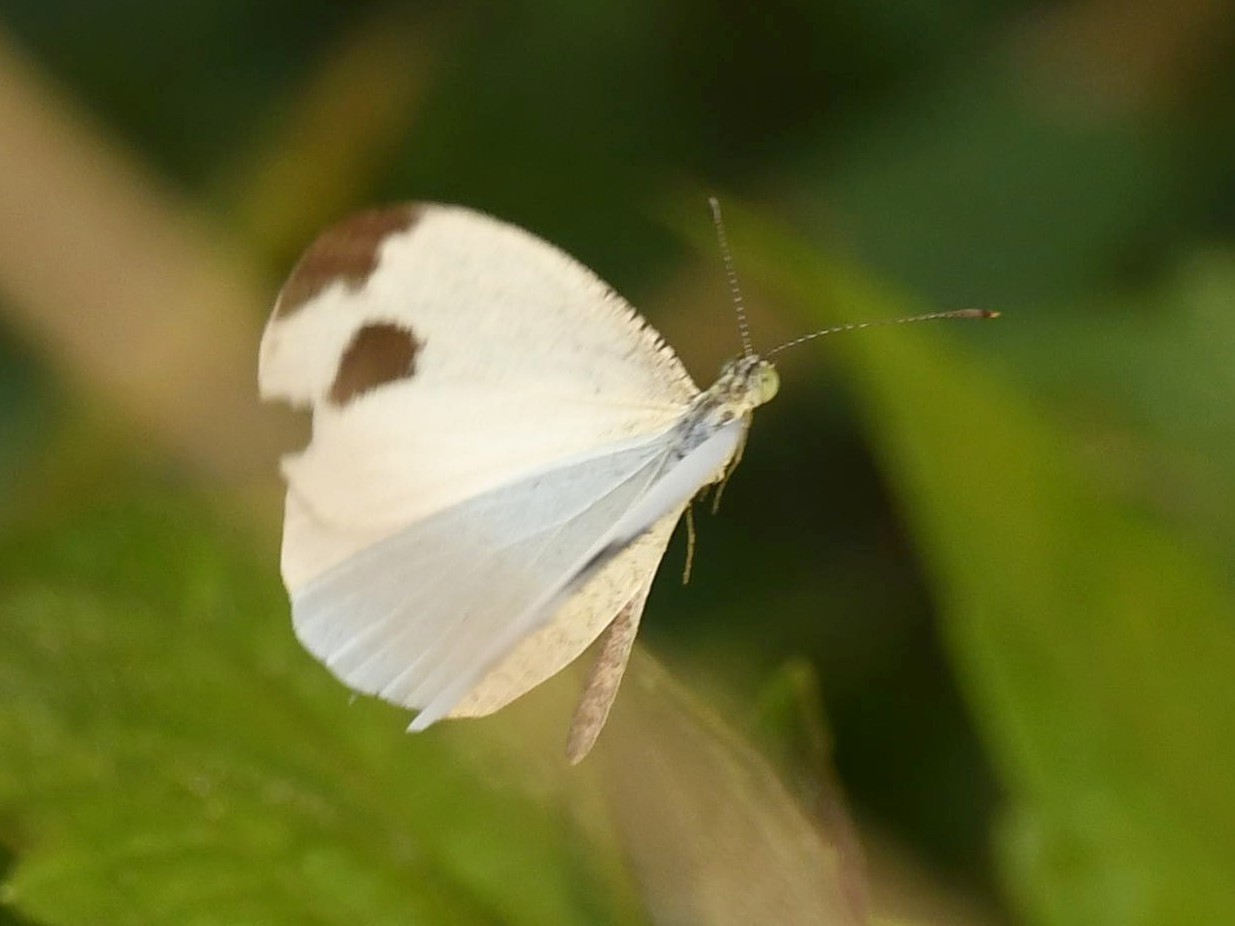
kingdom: Animalia
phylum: Arthropoda
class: Insecta
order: Lepidoptera
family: Pieridae
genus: Leptosia
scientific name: Leptosia nina
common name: Psyche
